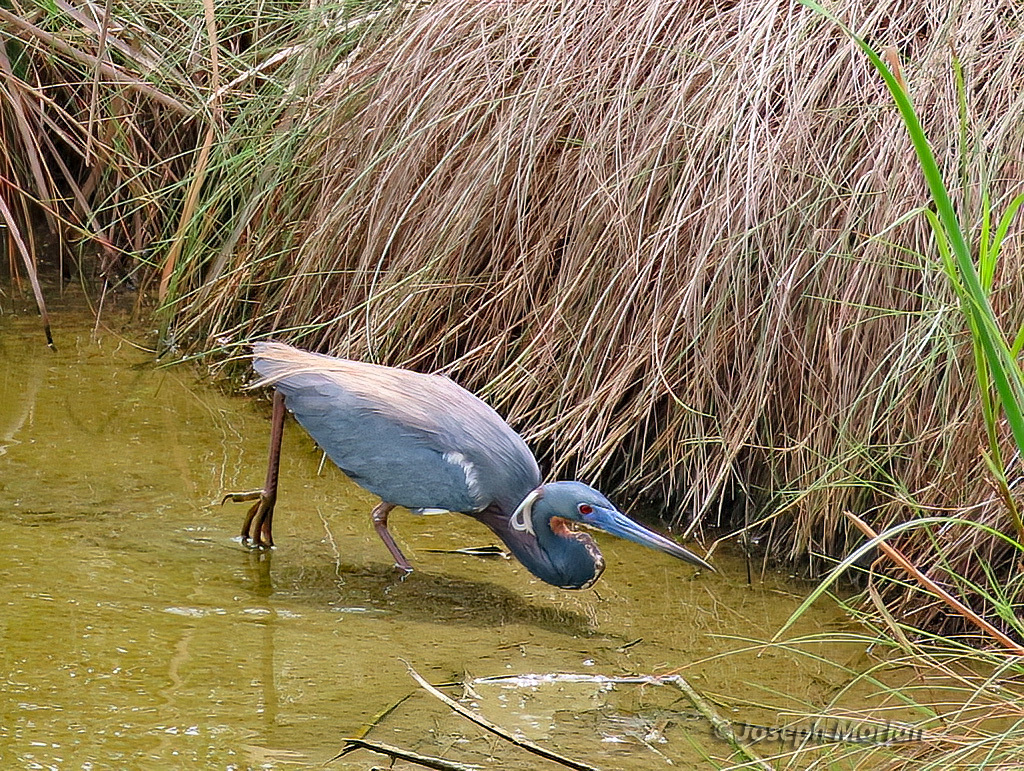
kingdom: Animalia
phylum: Chordata
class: Aves
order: Pelecaniformes
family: Ardeidae
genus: Egretta
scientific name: Egretta tricolor
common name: Tricolored heron
